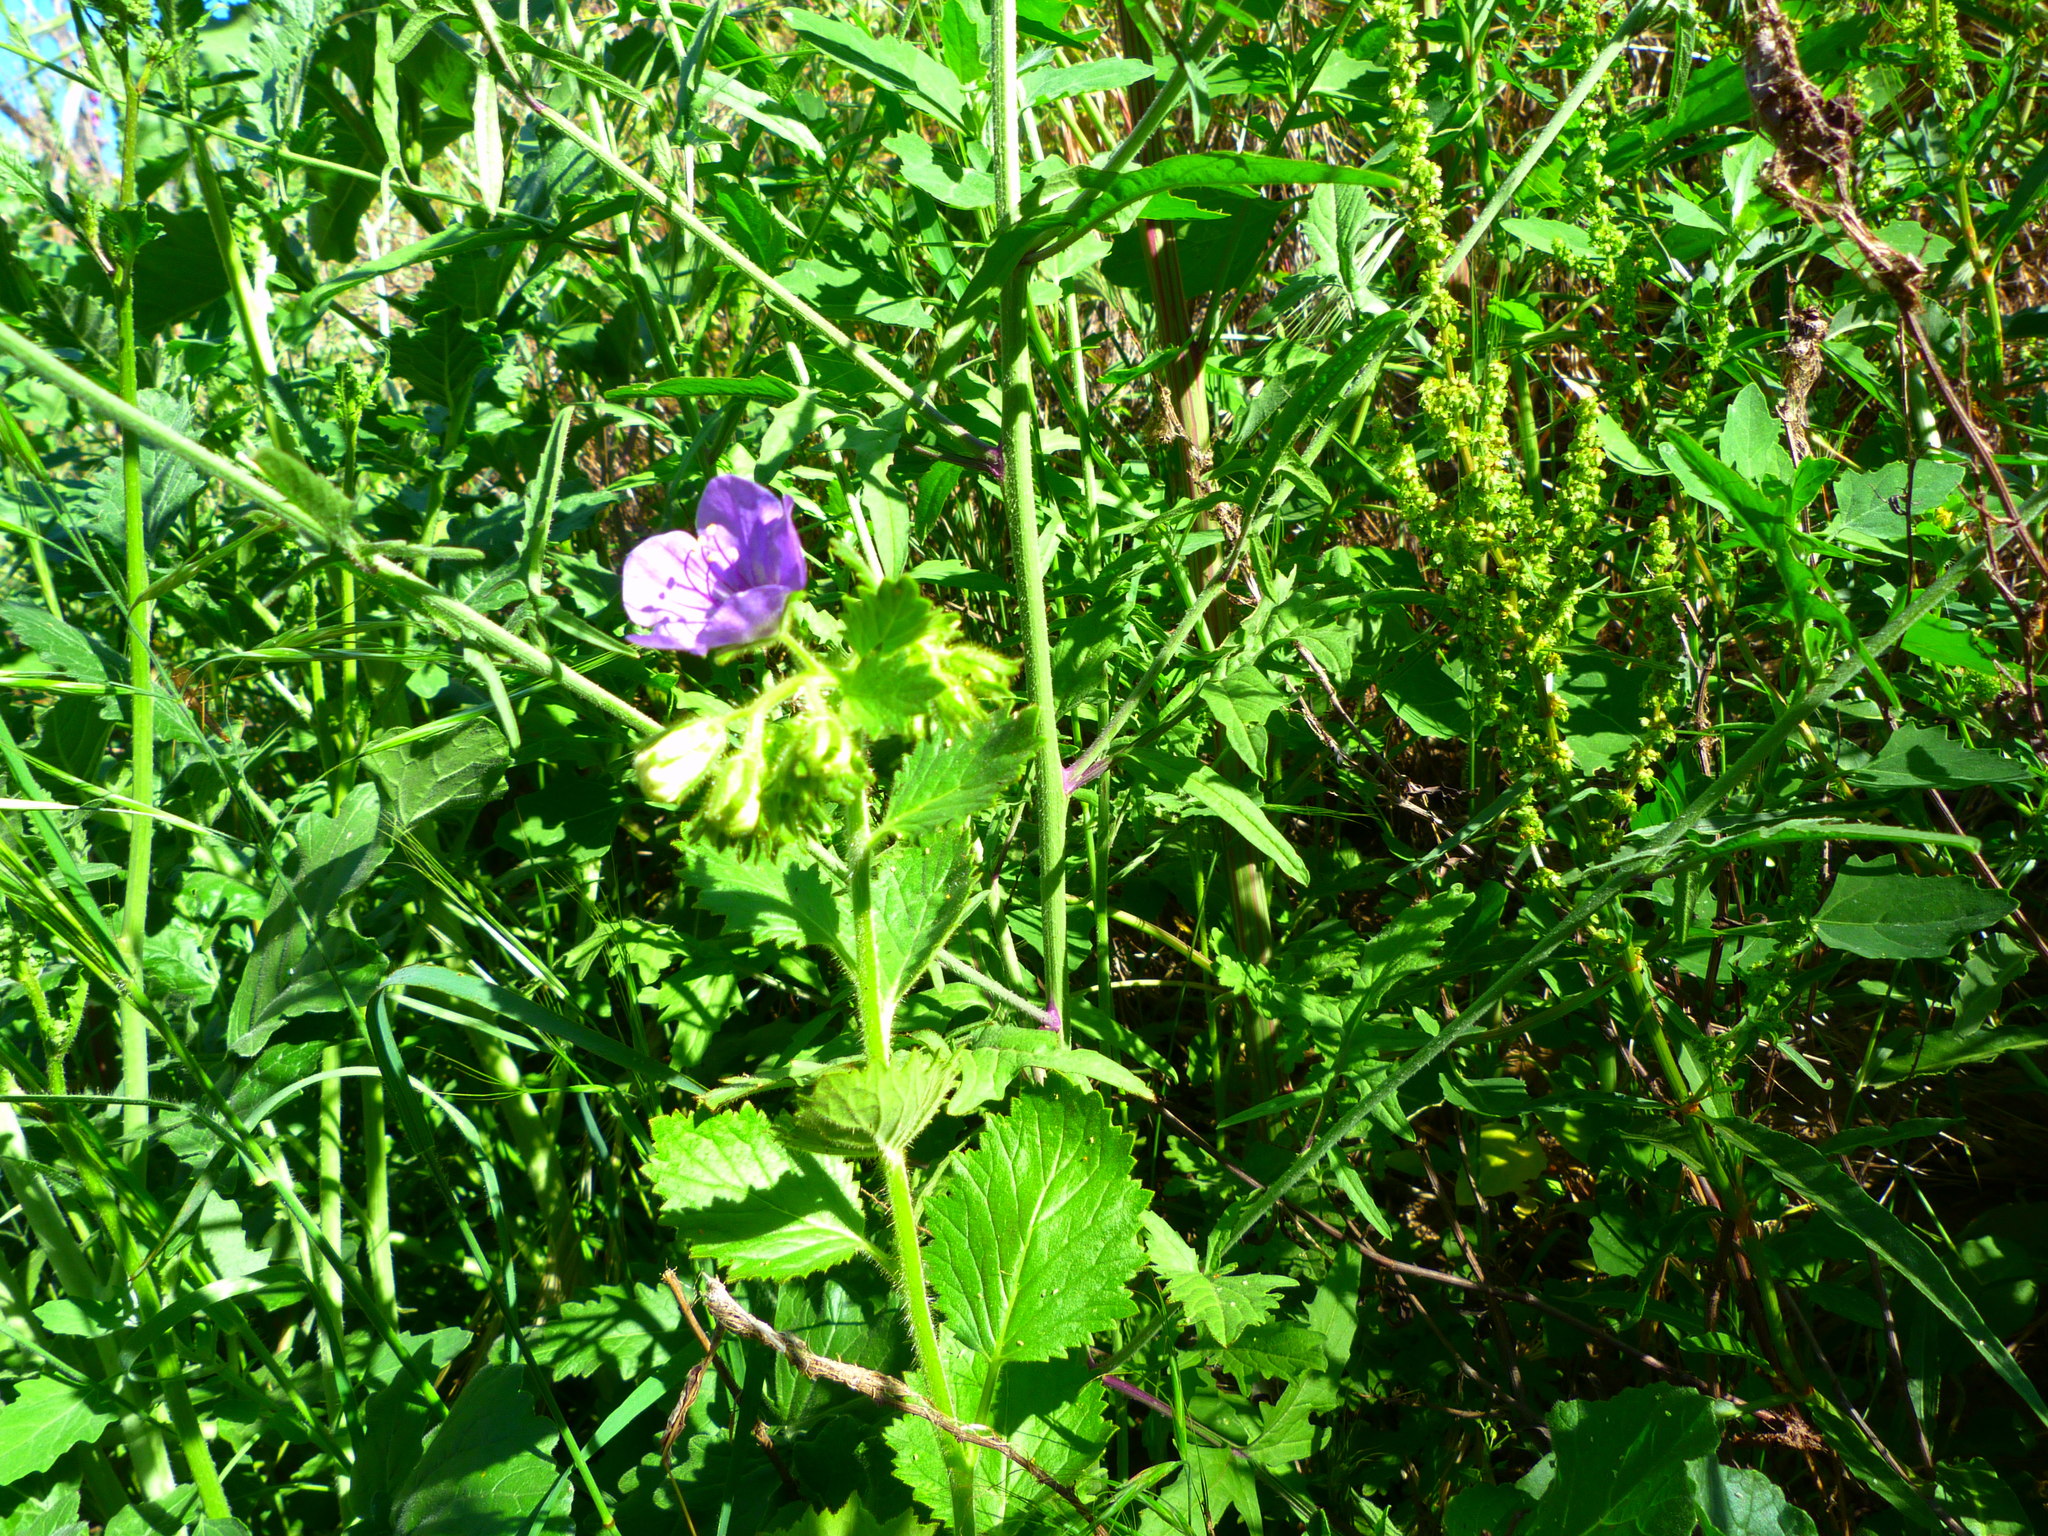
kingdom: Plantae
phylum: Tracheophyta
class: Magnoliopsida
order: Boraginales
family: Hydrophyllaceae
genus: Phacelia
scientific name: Phacelia grandiflora
